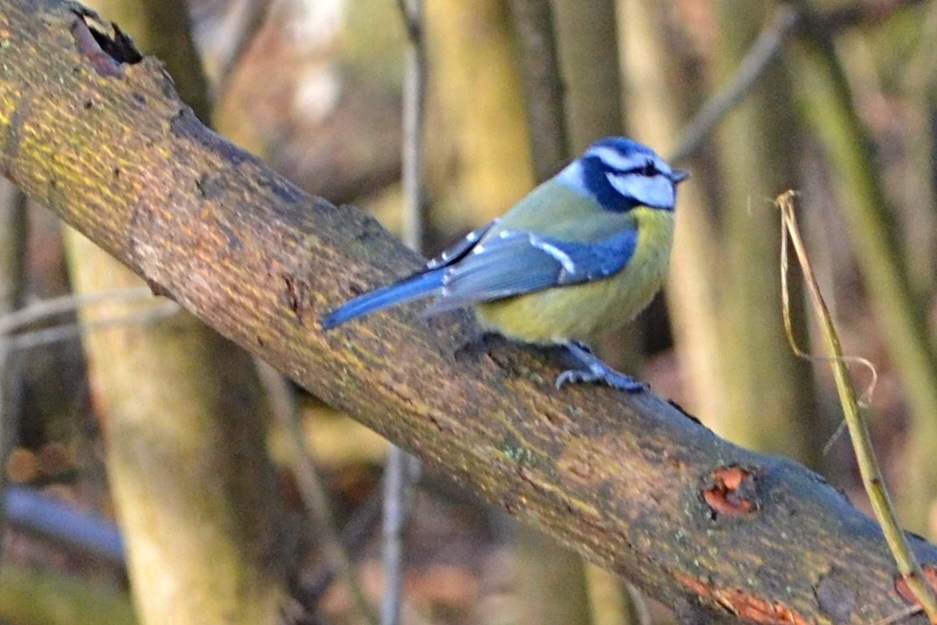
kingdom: Animalia
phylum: Chordata
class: Aves
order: Passeriformes
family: Paridae
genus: Cyanistes
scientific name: Cyanistes caeruleus
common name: Eurasian blue tit
